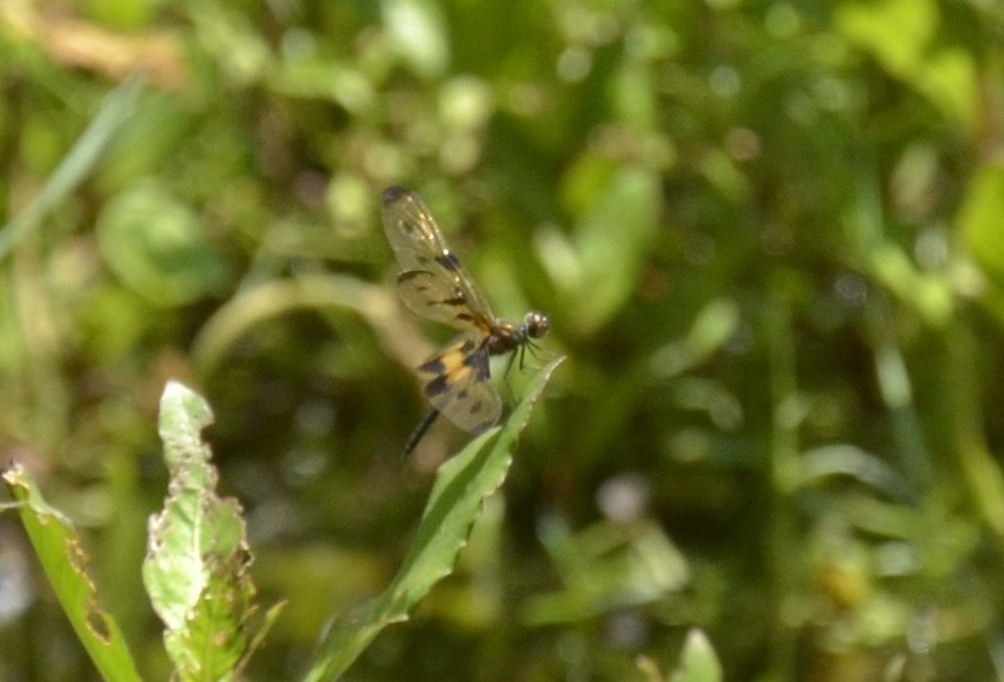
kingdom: Animalia
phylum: Arthropoda
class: Insecta
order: Odonata
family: Libellulidae
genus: Rhyothemis
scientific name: Rhyothemis variegata
